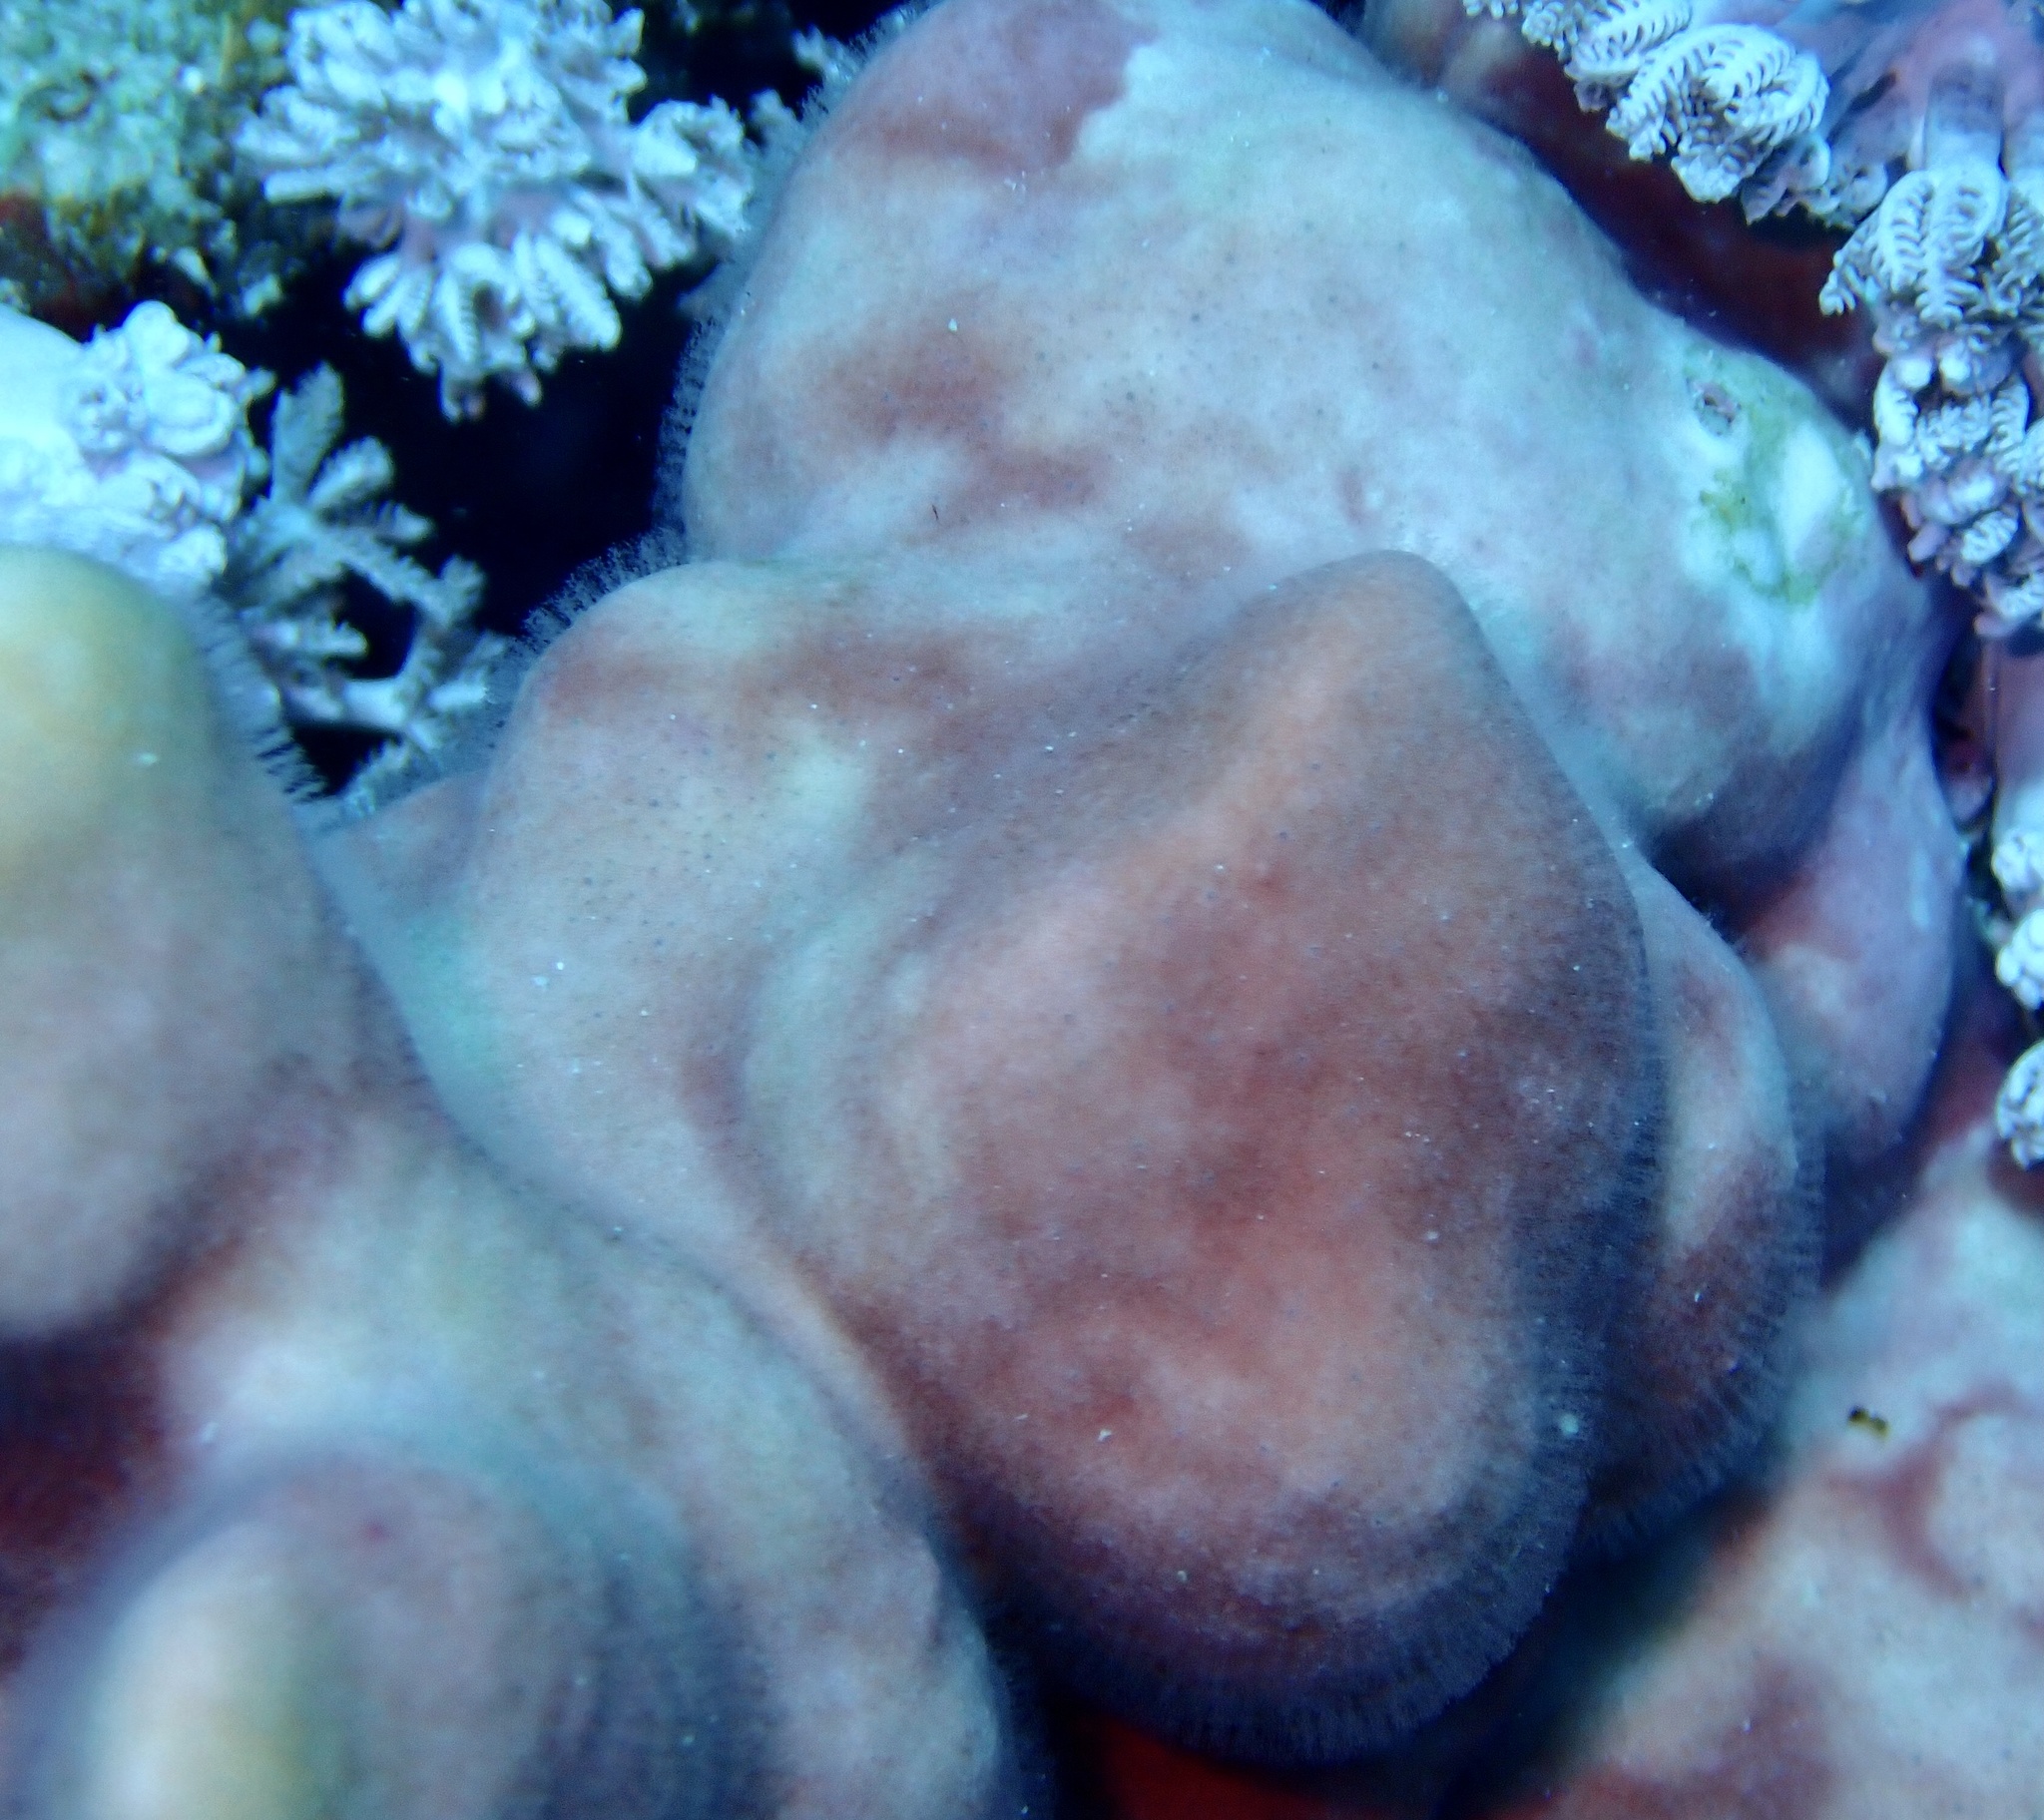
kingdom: Animalia
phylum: Cnidaria
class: Hydrozoa
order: Anthoathecata
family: Milleporidae
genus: Millepora
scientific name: Millepora exaesa
